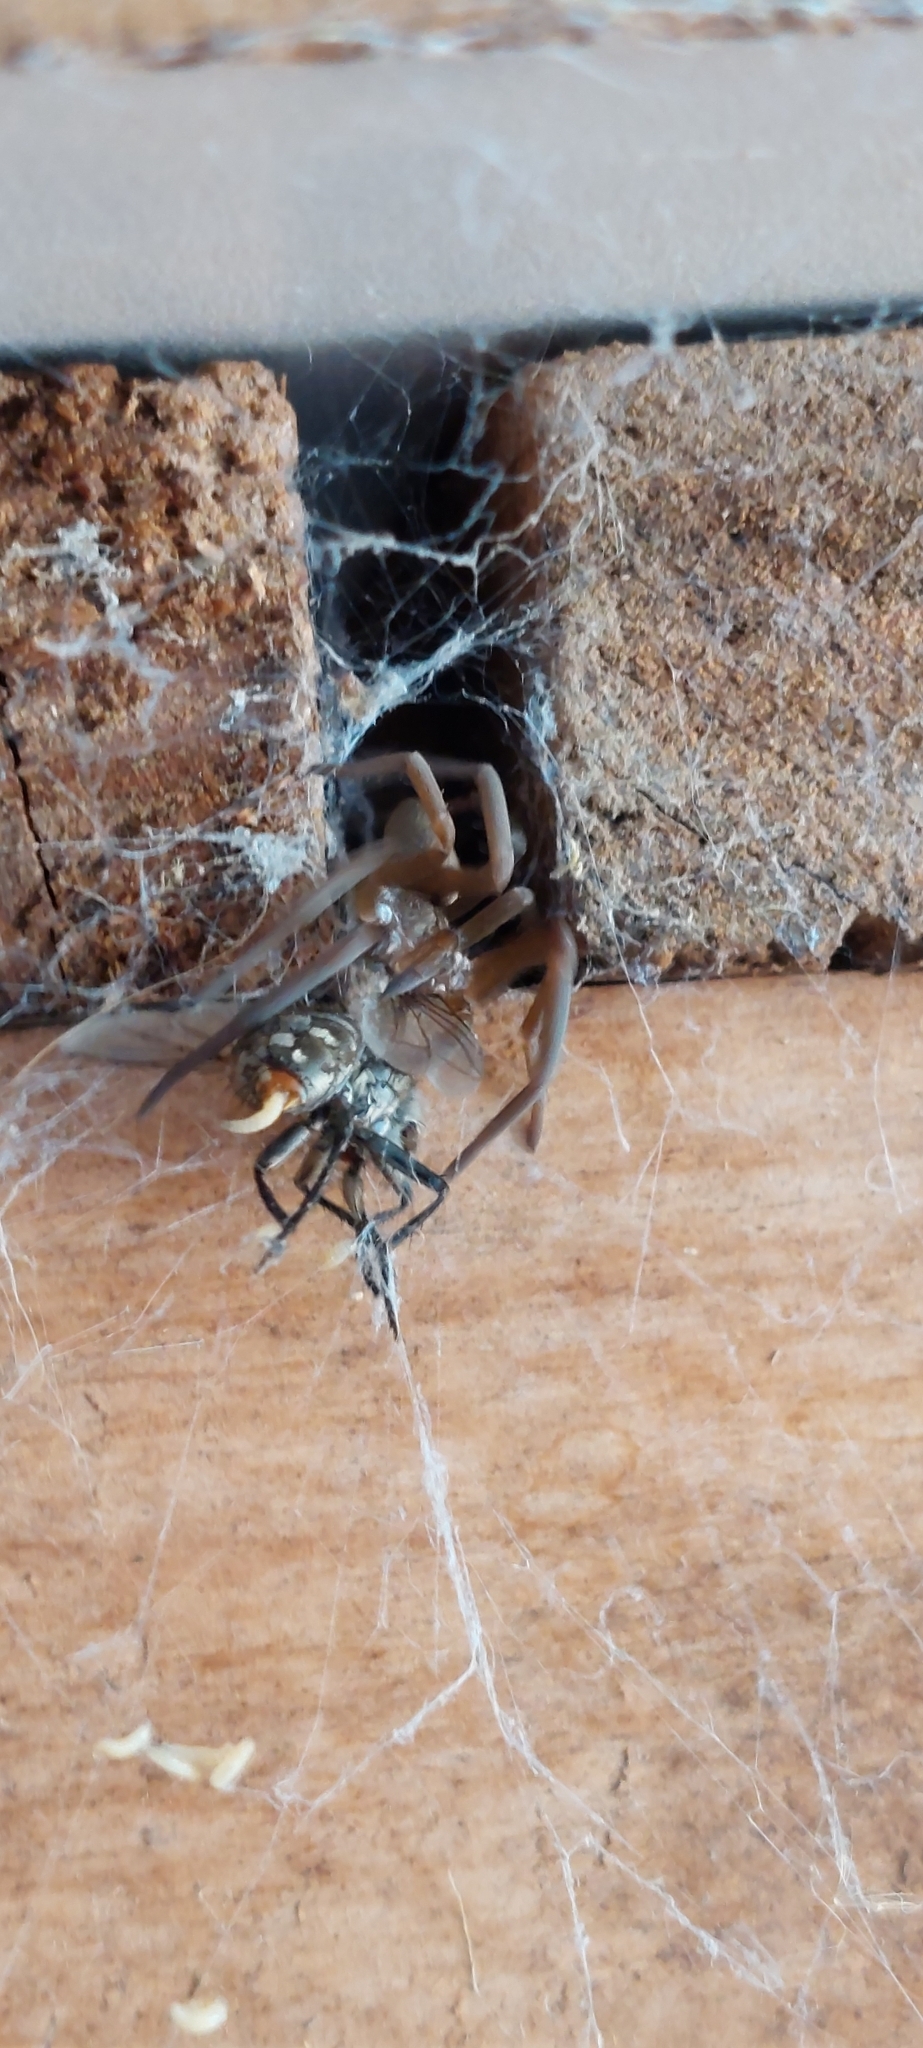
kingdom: Animalia
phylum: Arthropoda
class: Arachnida
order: Araneae
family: Filistatidae
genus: Kukulcania
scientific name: Kukulcania hibernalis
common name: Crevice weaver
